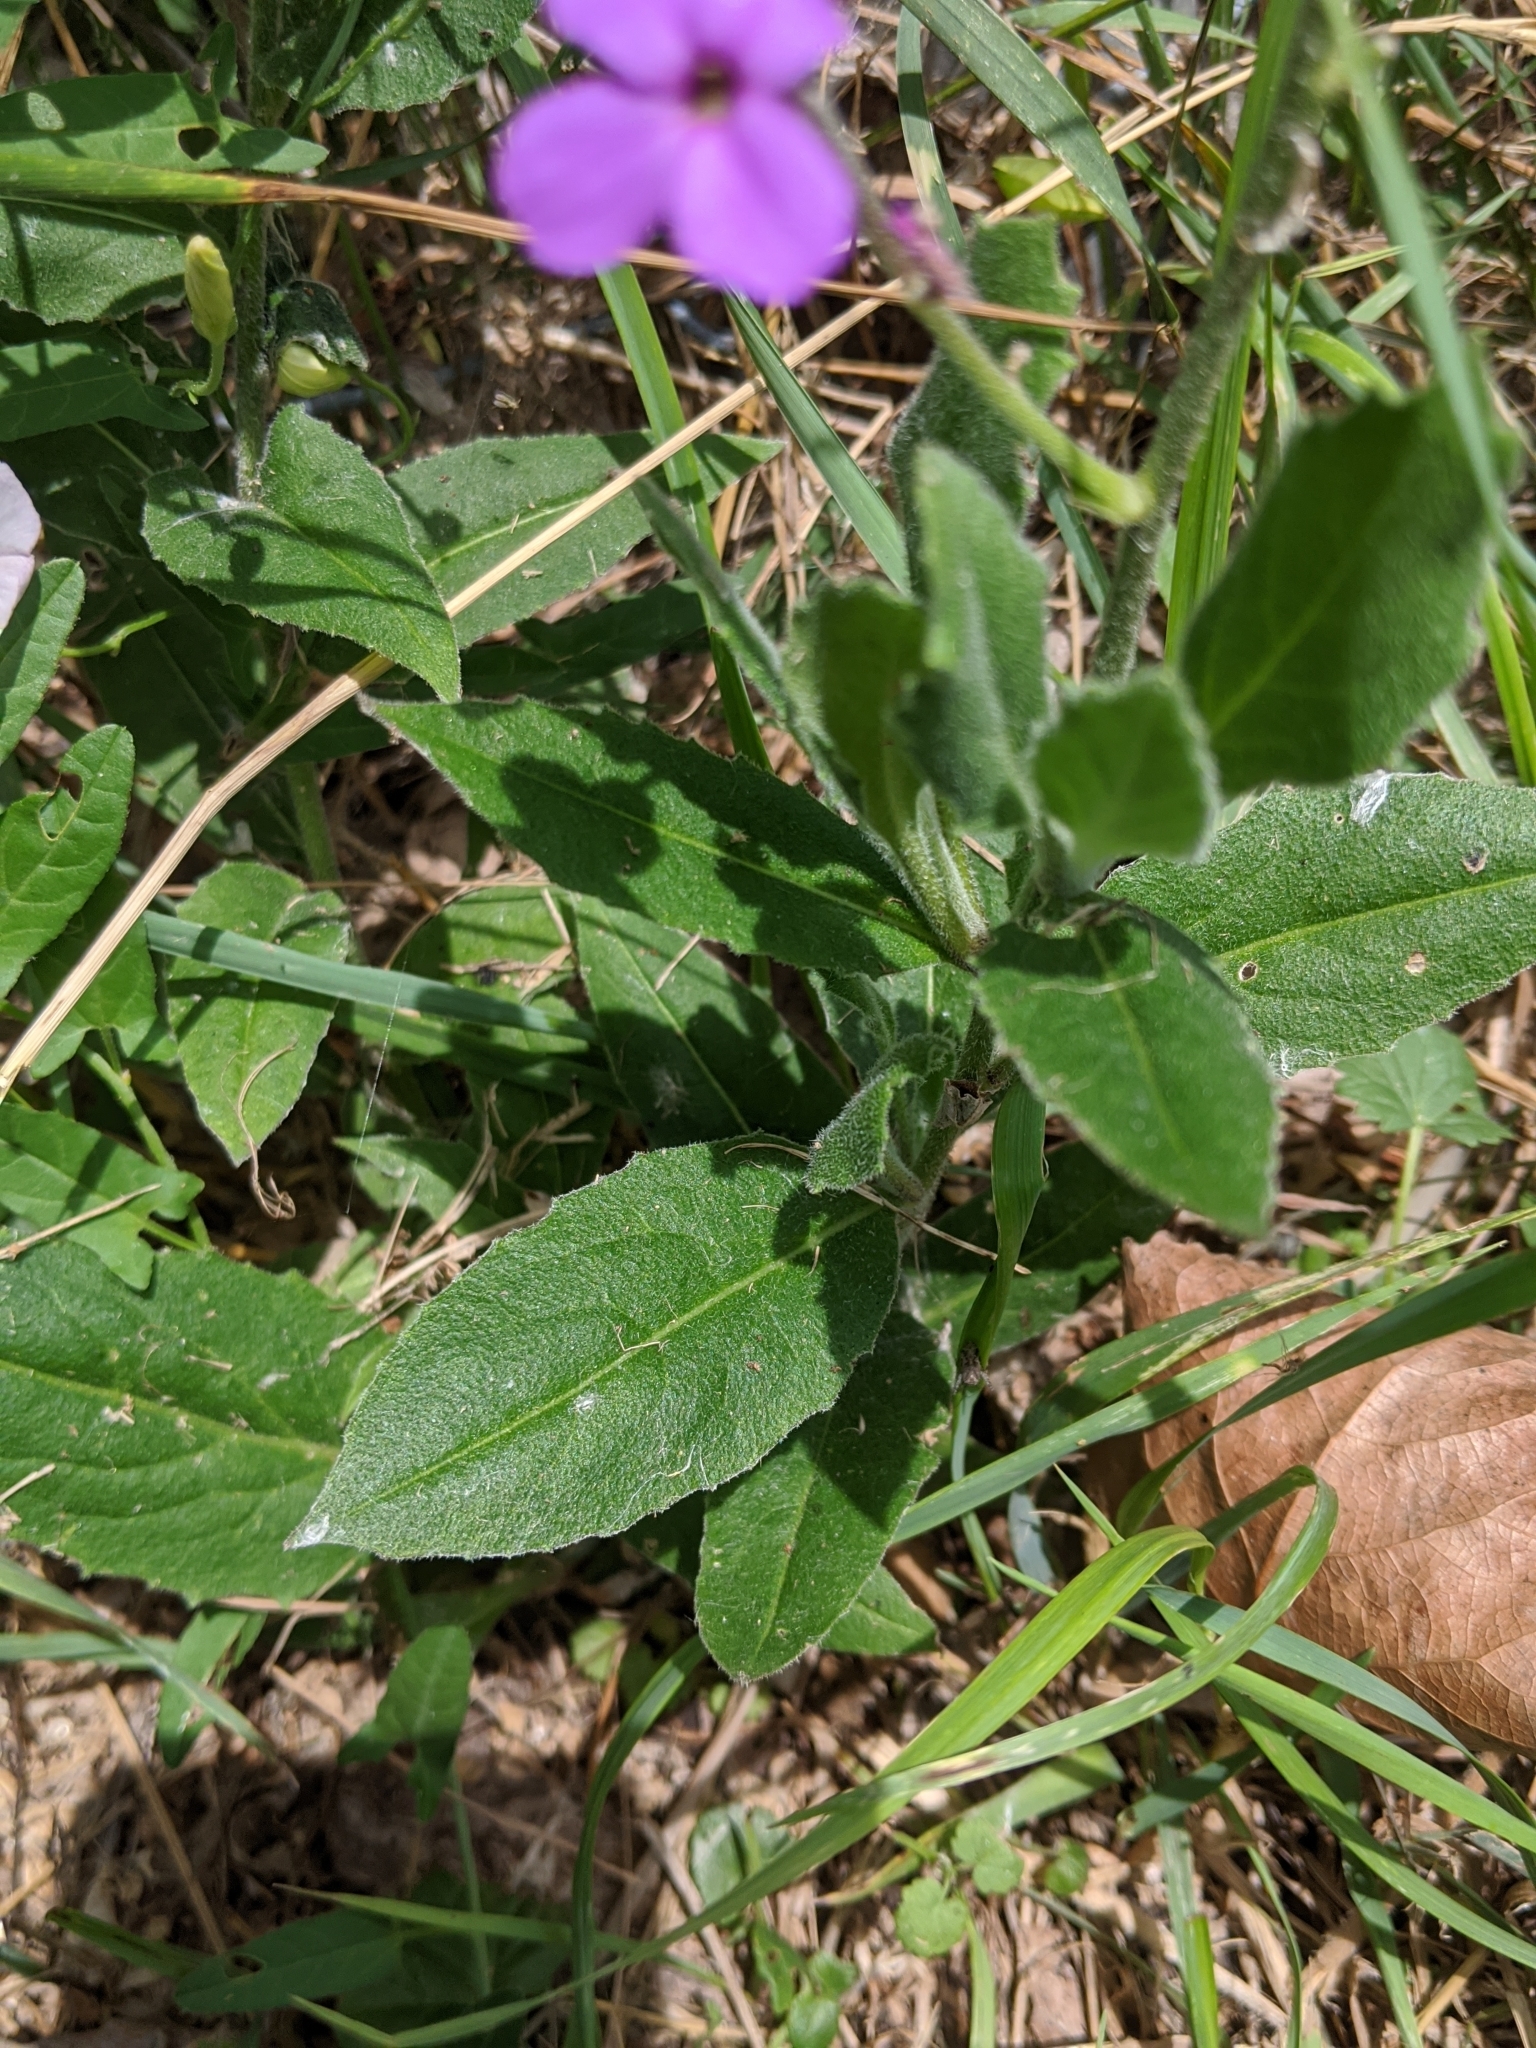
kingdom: Plantae
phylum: Tracheophyta
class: Magnoliopsida
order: Brassicales
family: Brassicaceae
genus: Hesperis
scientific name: Hesperis matronalis
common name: Dame's-violet
